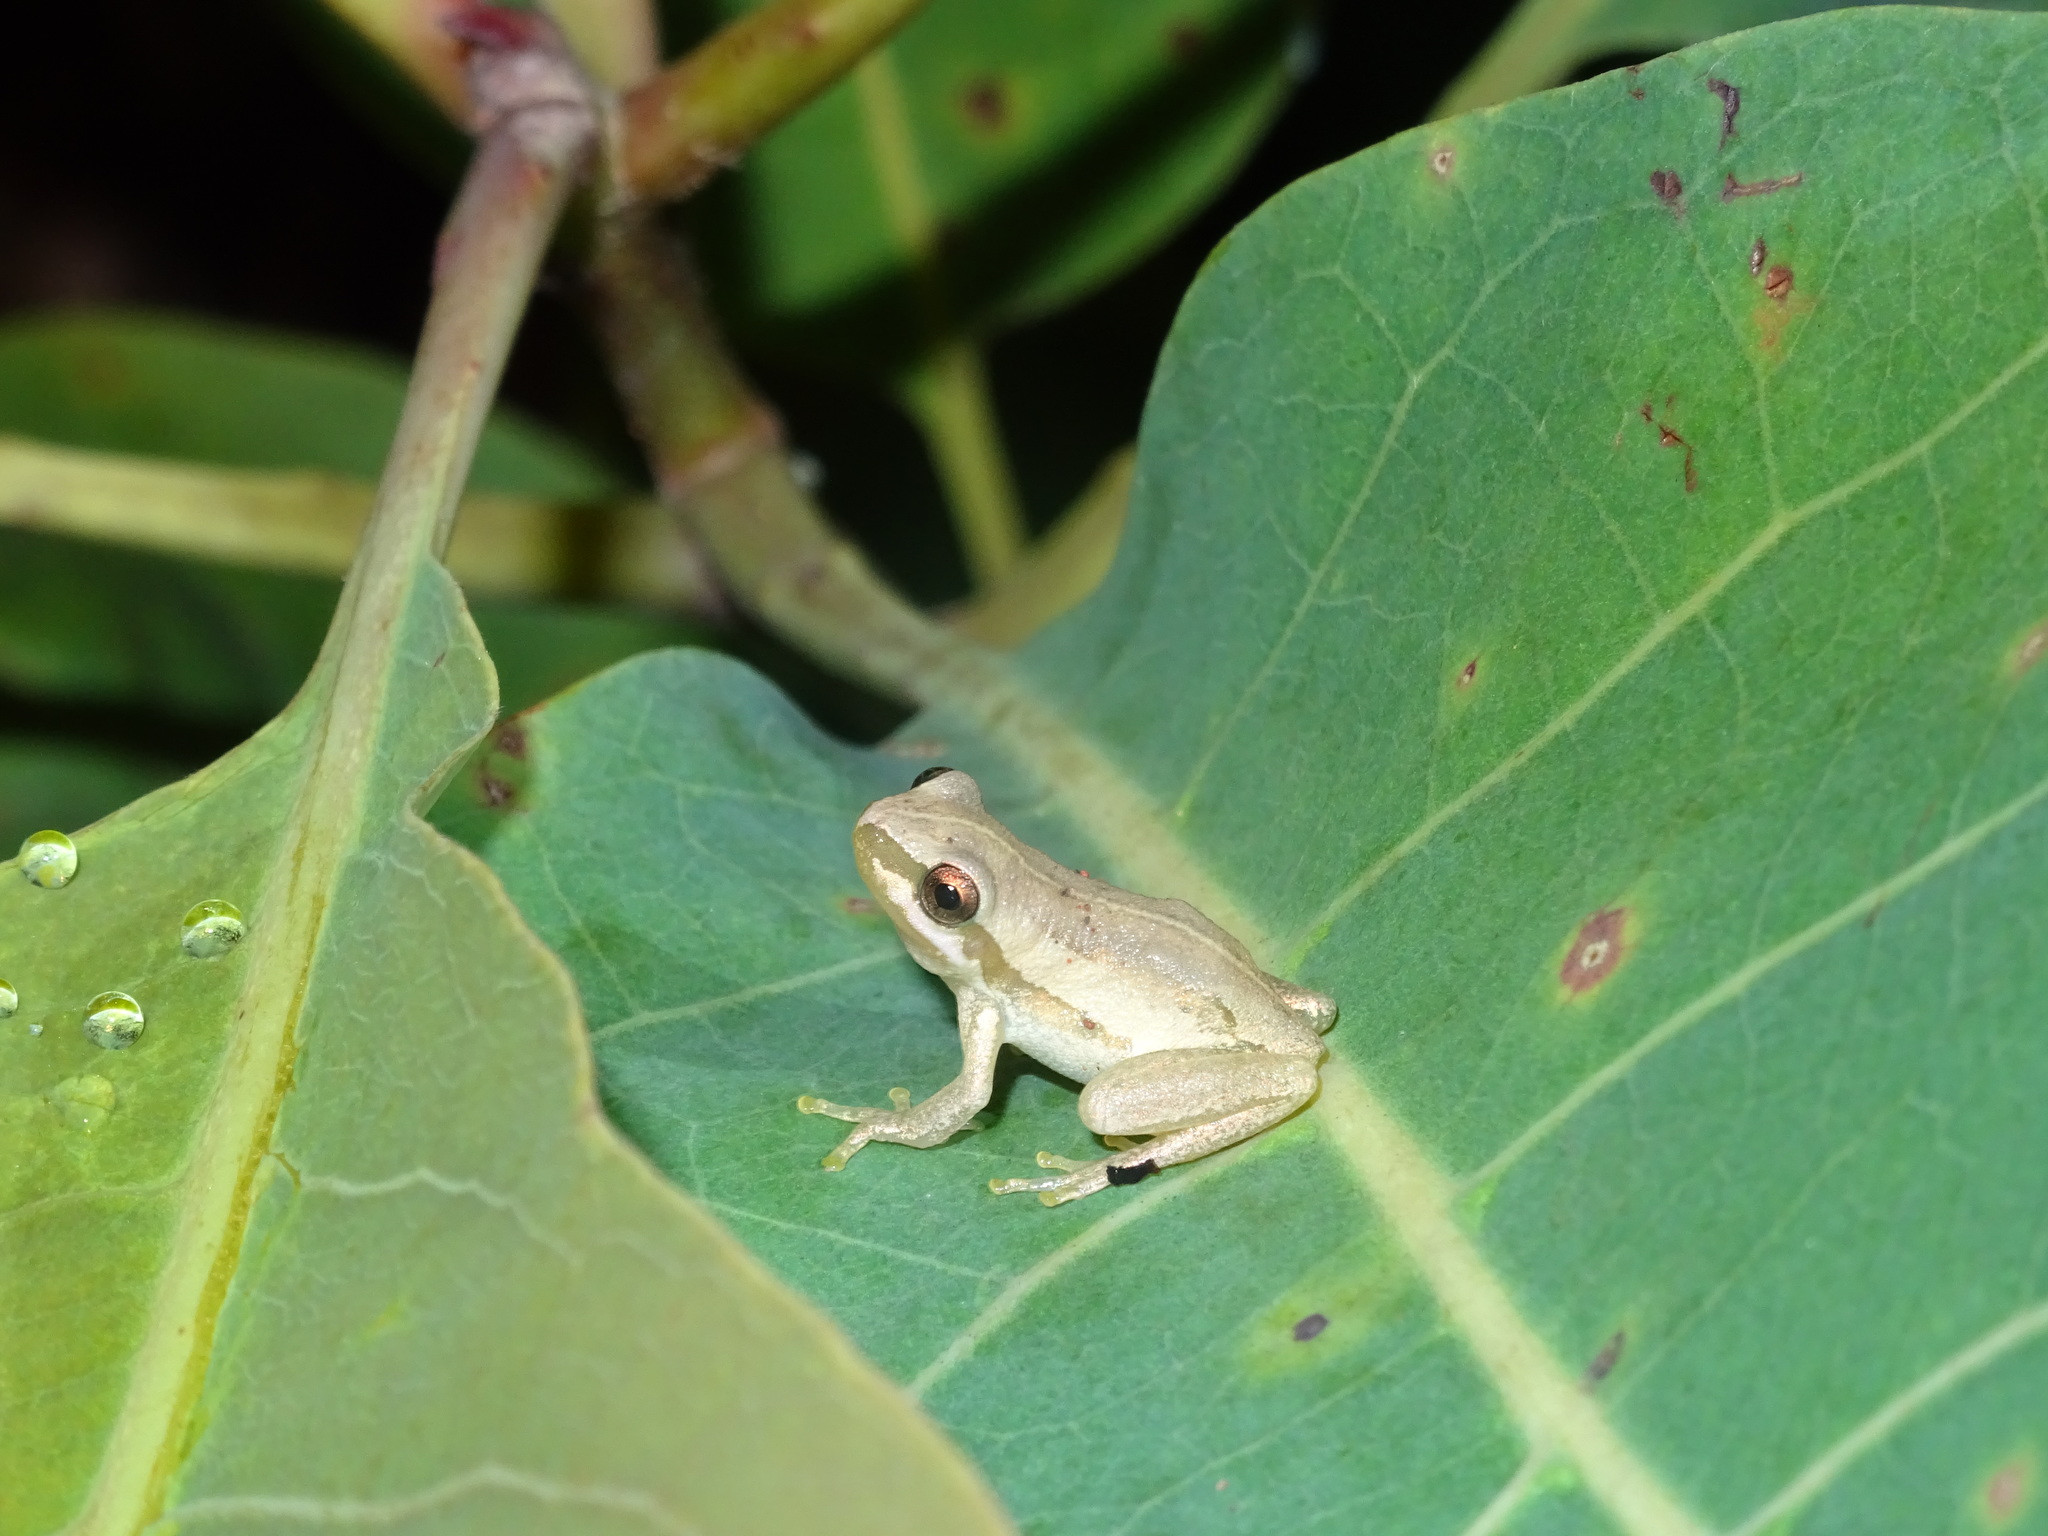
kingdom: Animalia
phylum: Chordata
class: Amphibia
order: Anura
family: Pelodryadidae
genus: Litoria
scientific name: Litoria rubella
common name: Desert tree frog
